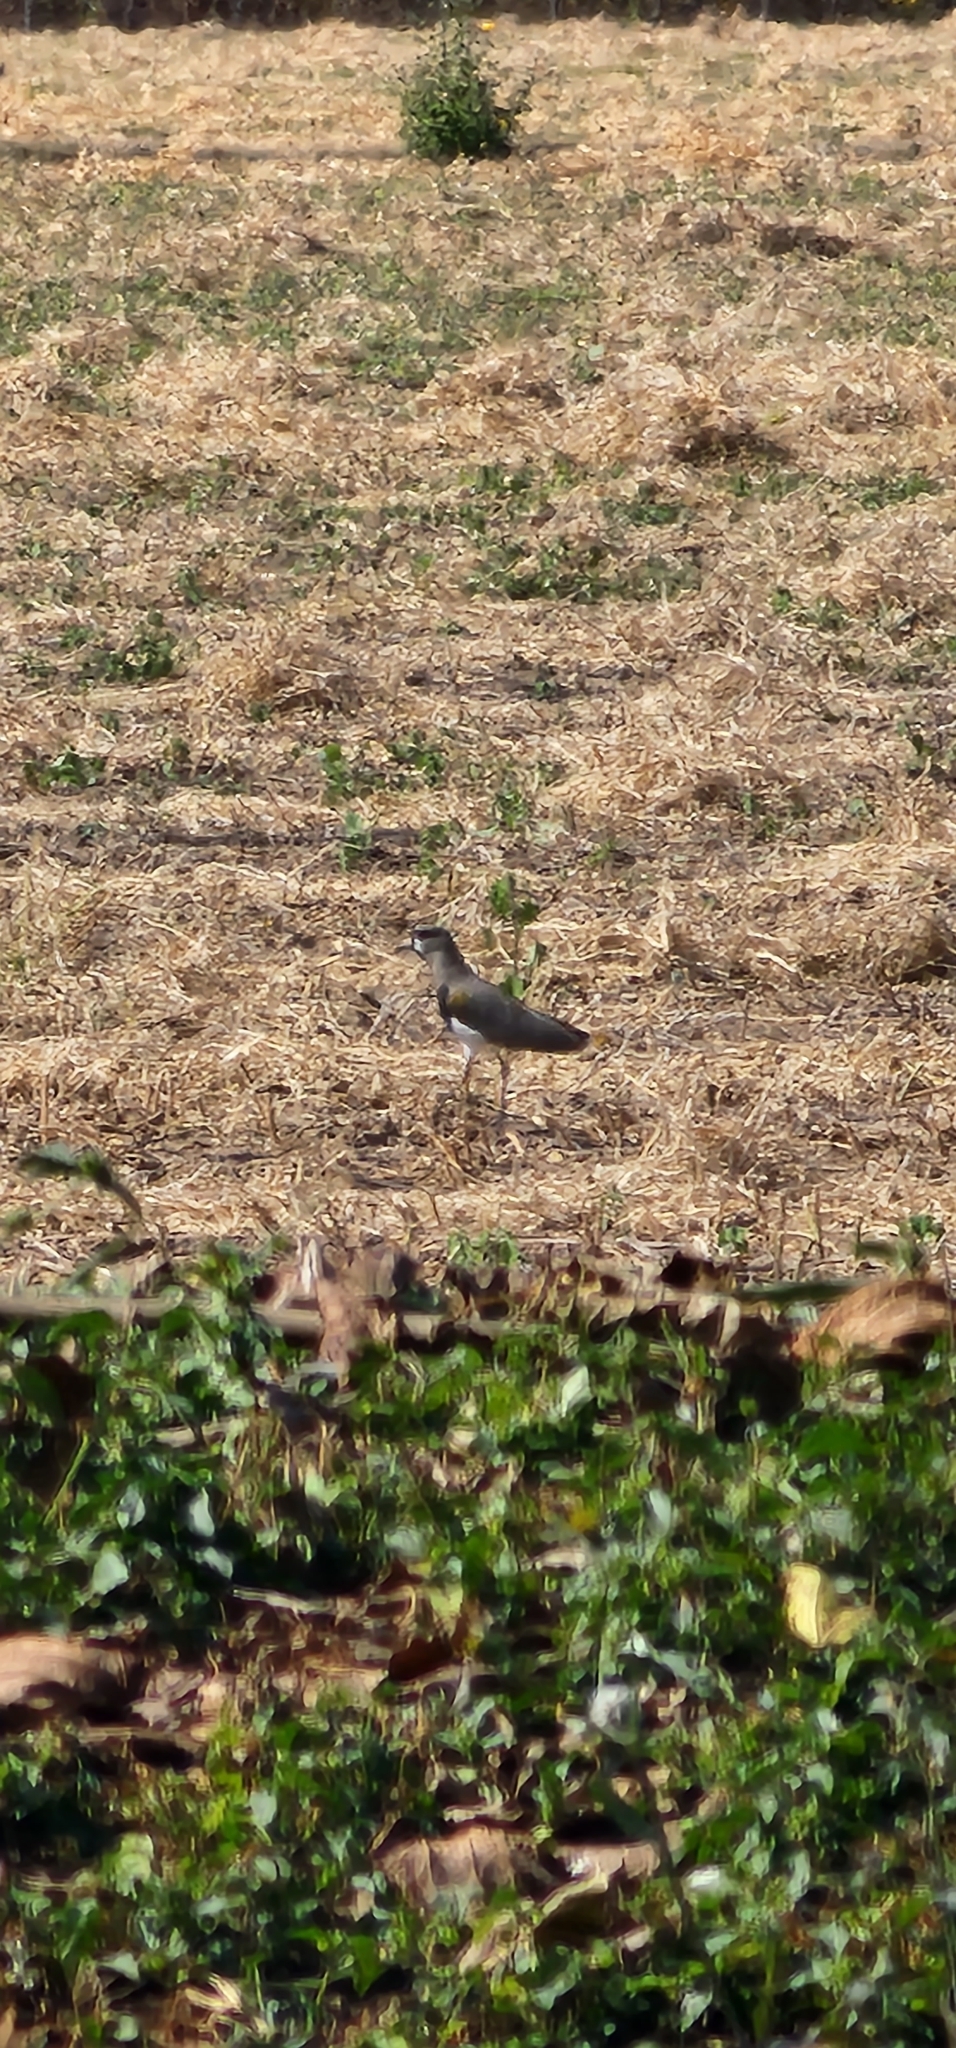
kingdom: Animalia
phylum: Chordata
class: Aves
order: Charadriiformes
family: Charadriidae
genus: Vanellus
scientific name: Vanellus chilensis
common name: Southern lapwing
